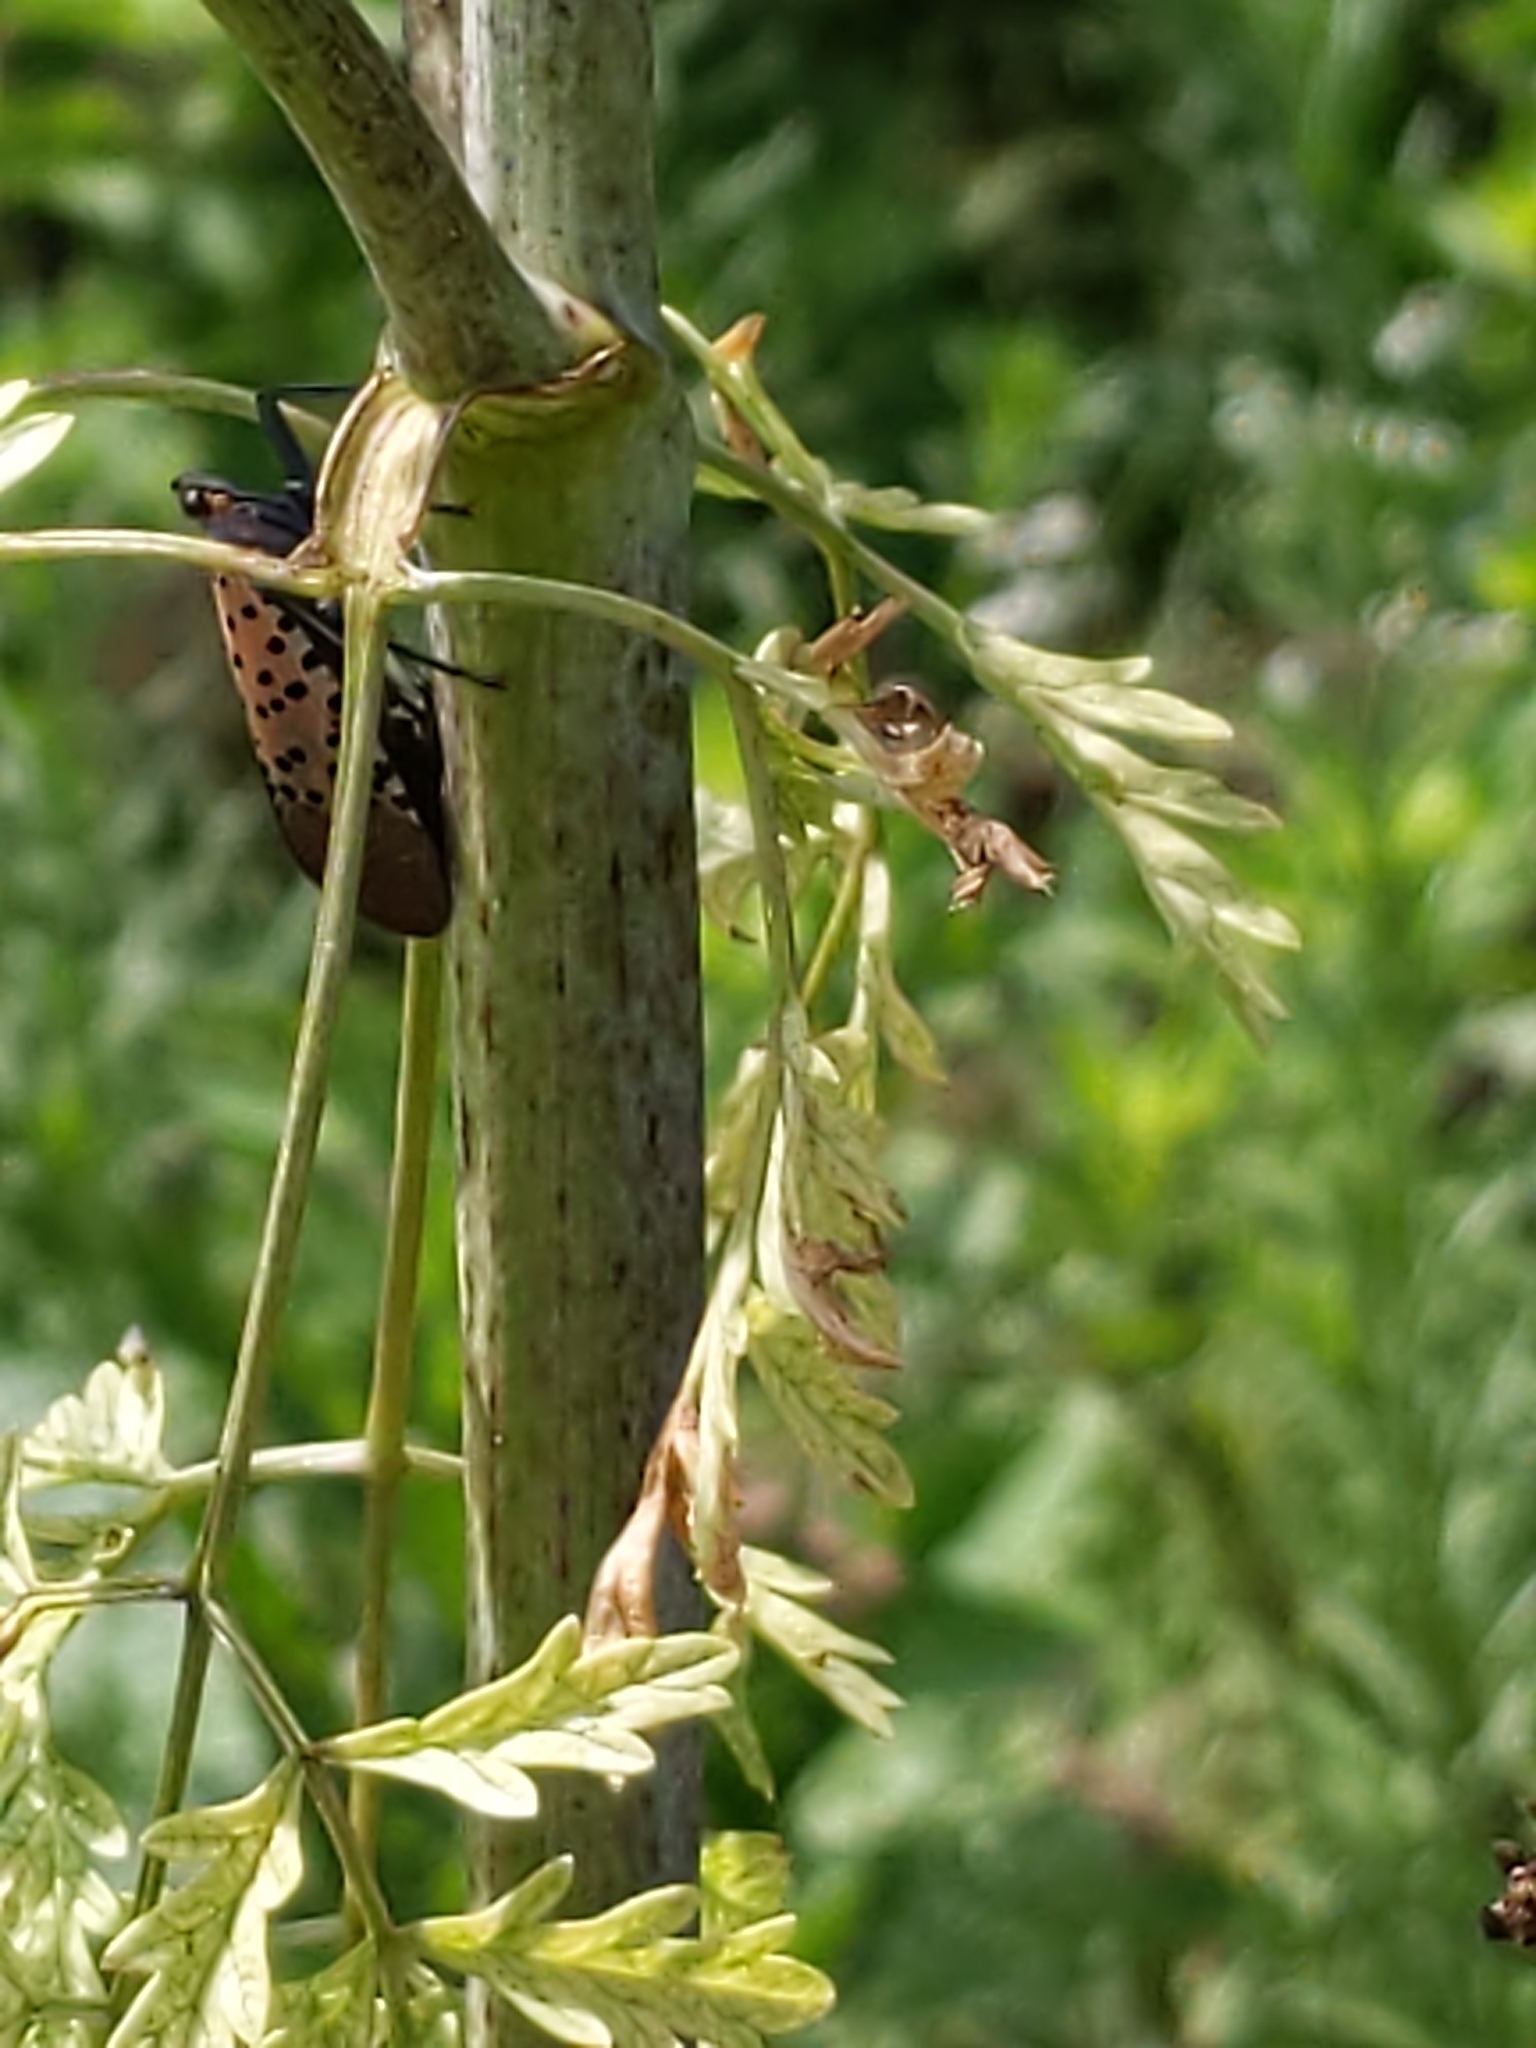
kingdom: Animalia
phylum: Arthropoda
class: Insecta
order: Hemiptera
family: Fulgoridae
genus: Lycorma
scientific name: Lycorma delicatula
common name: Spotted lanternfly
